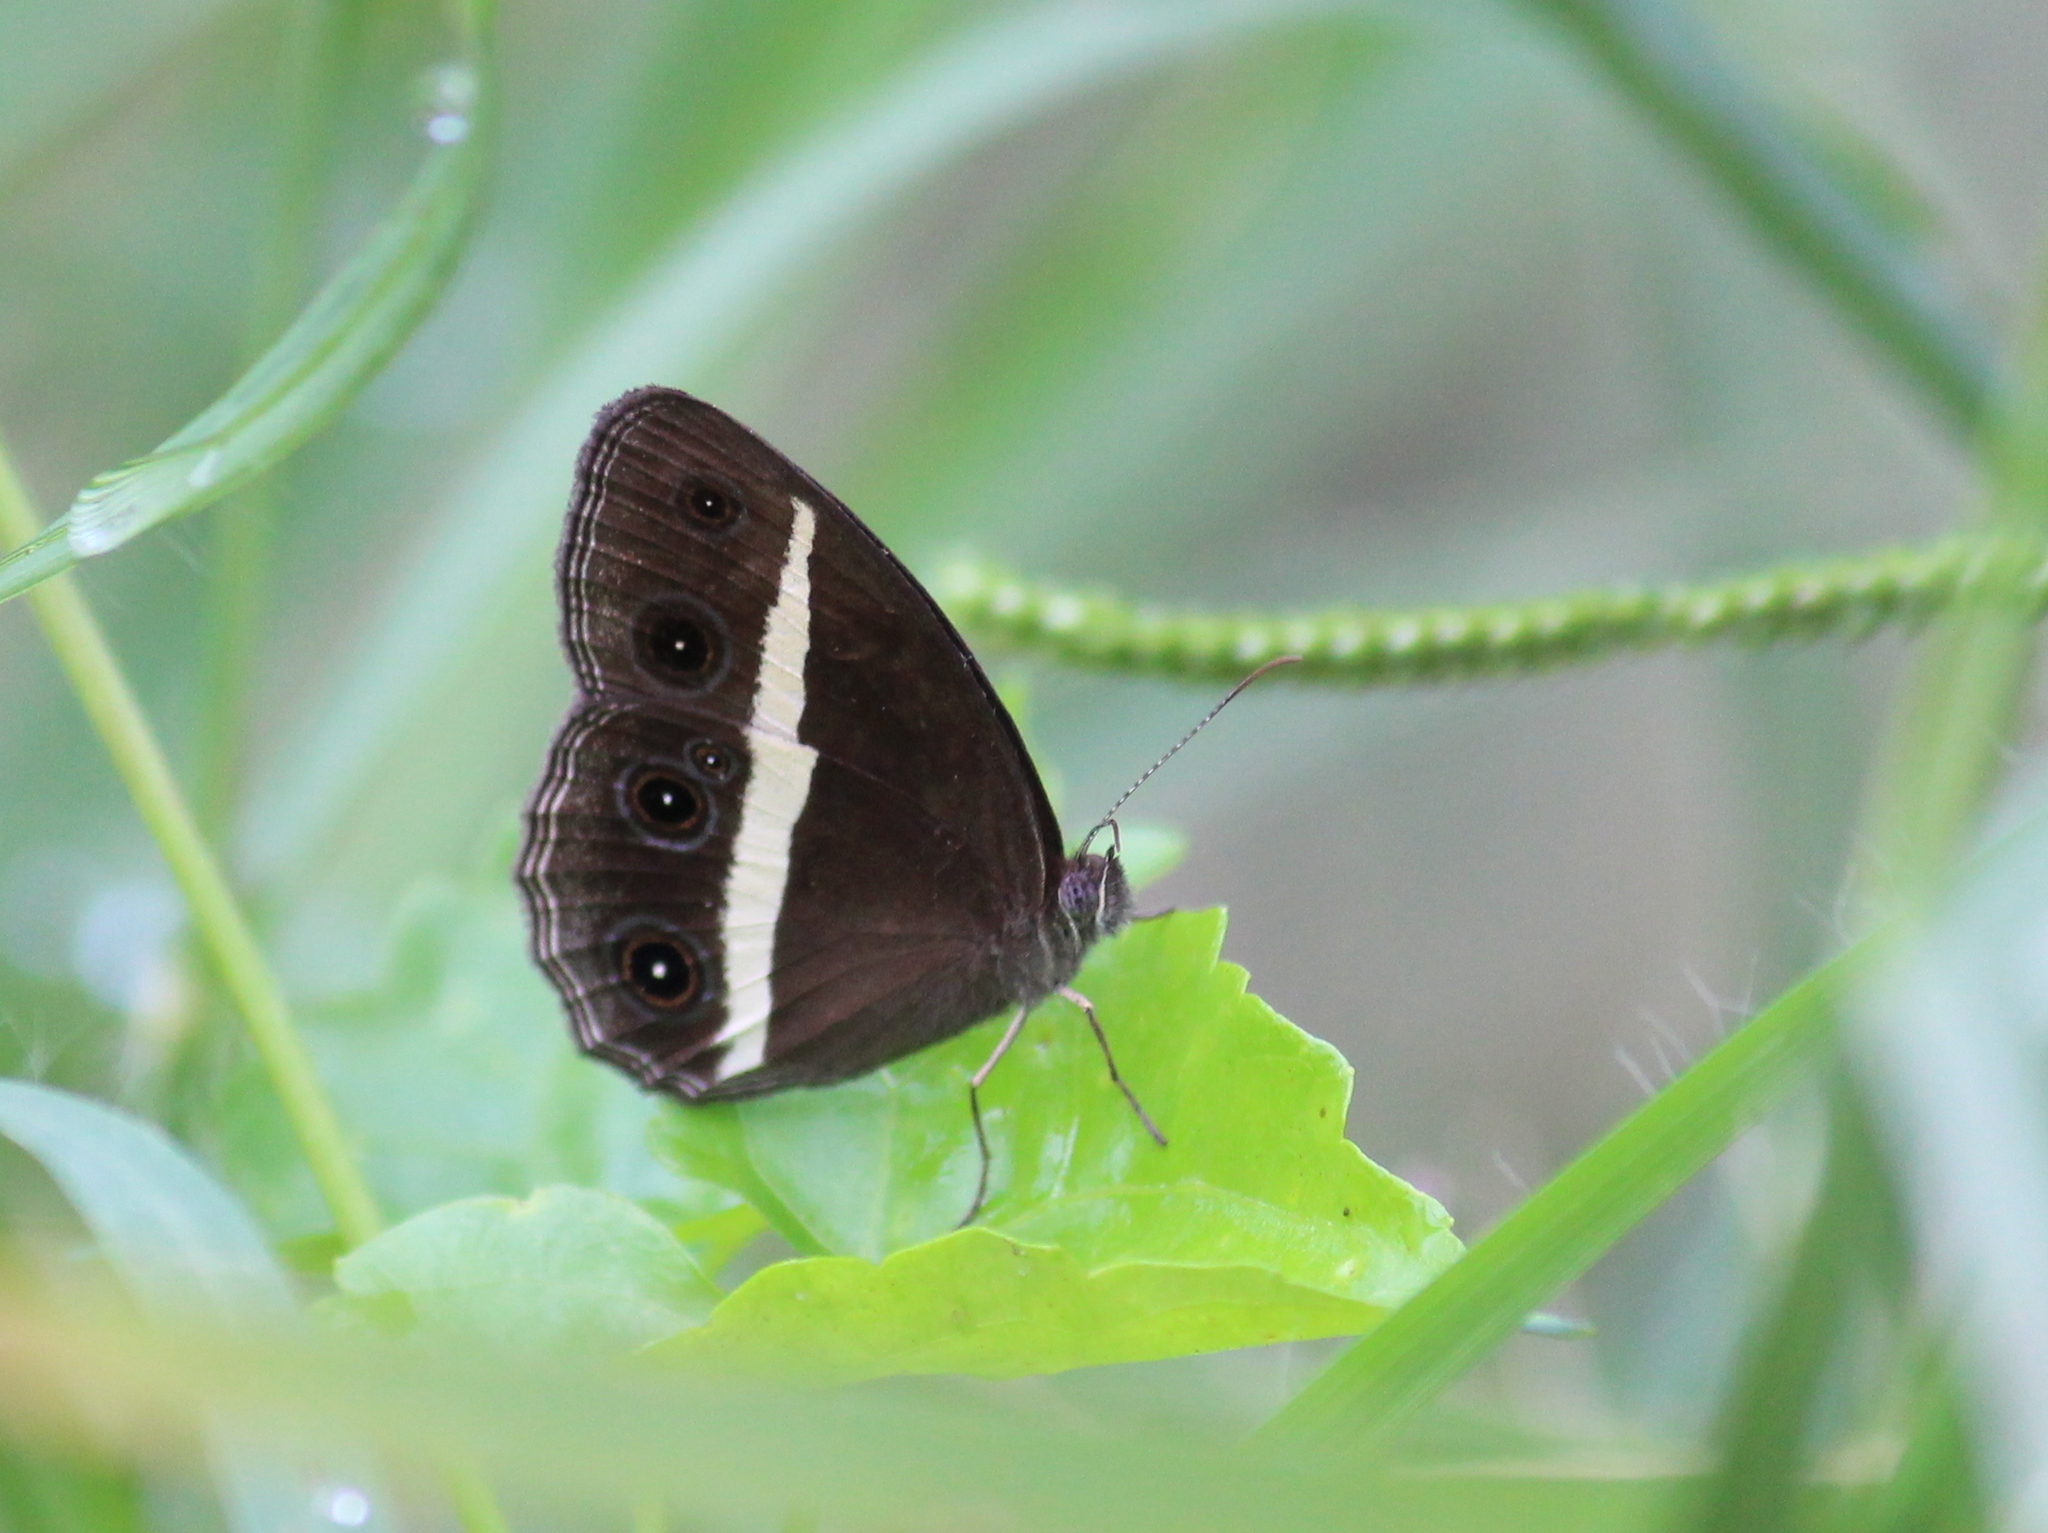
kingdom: Animalia
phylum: Arthropoda
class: Insecta
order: Lepidoptera
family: Nymphalidae
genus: Orsotriaena
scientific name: Orsotriaena medus
